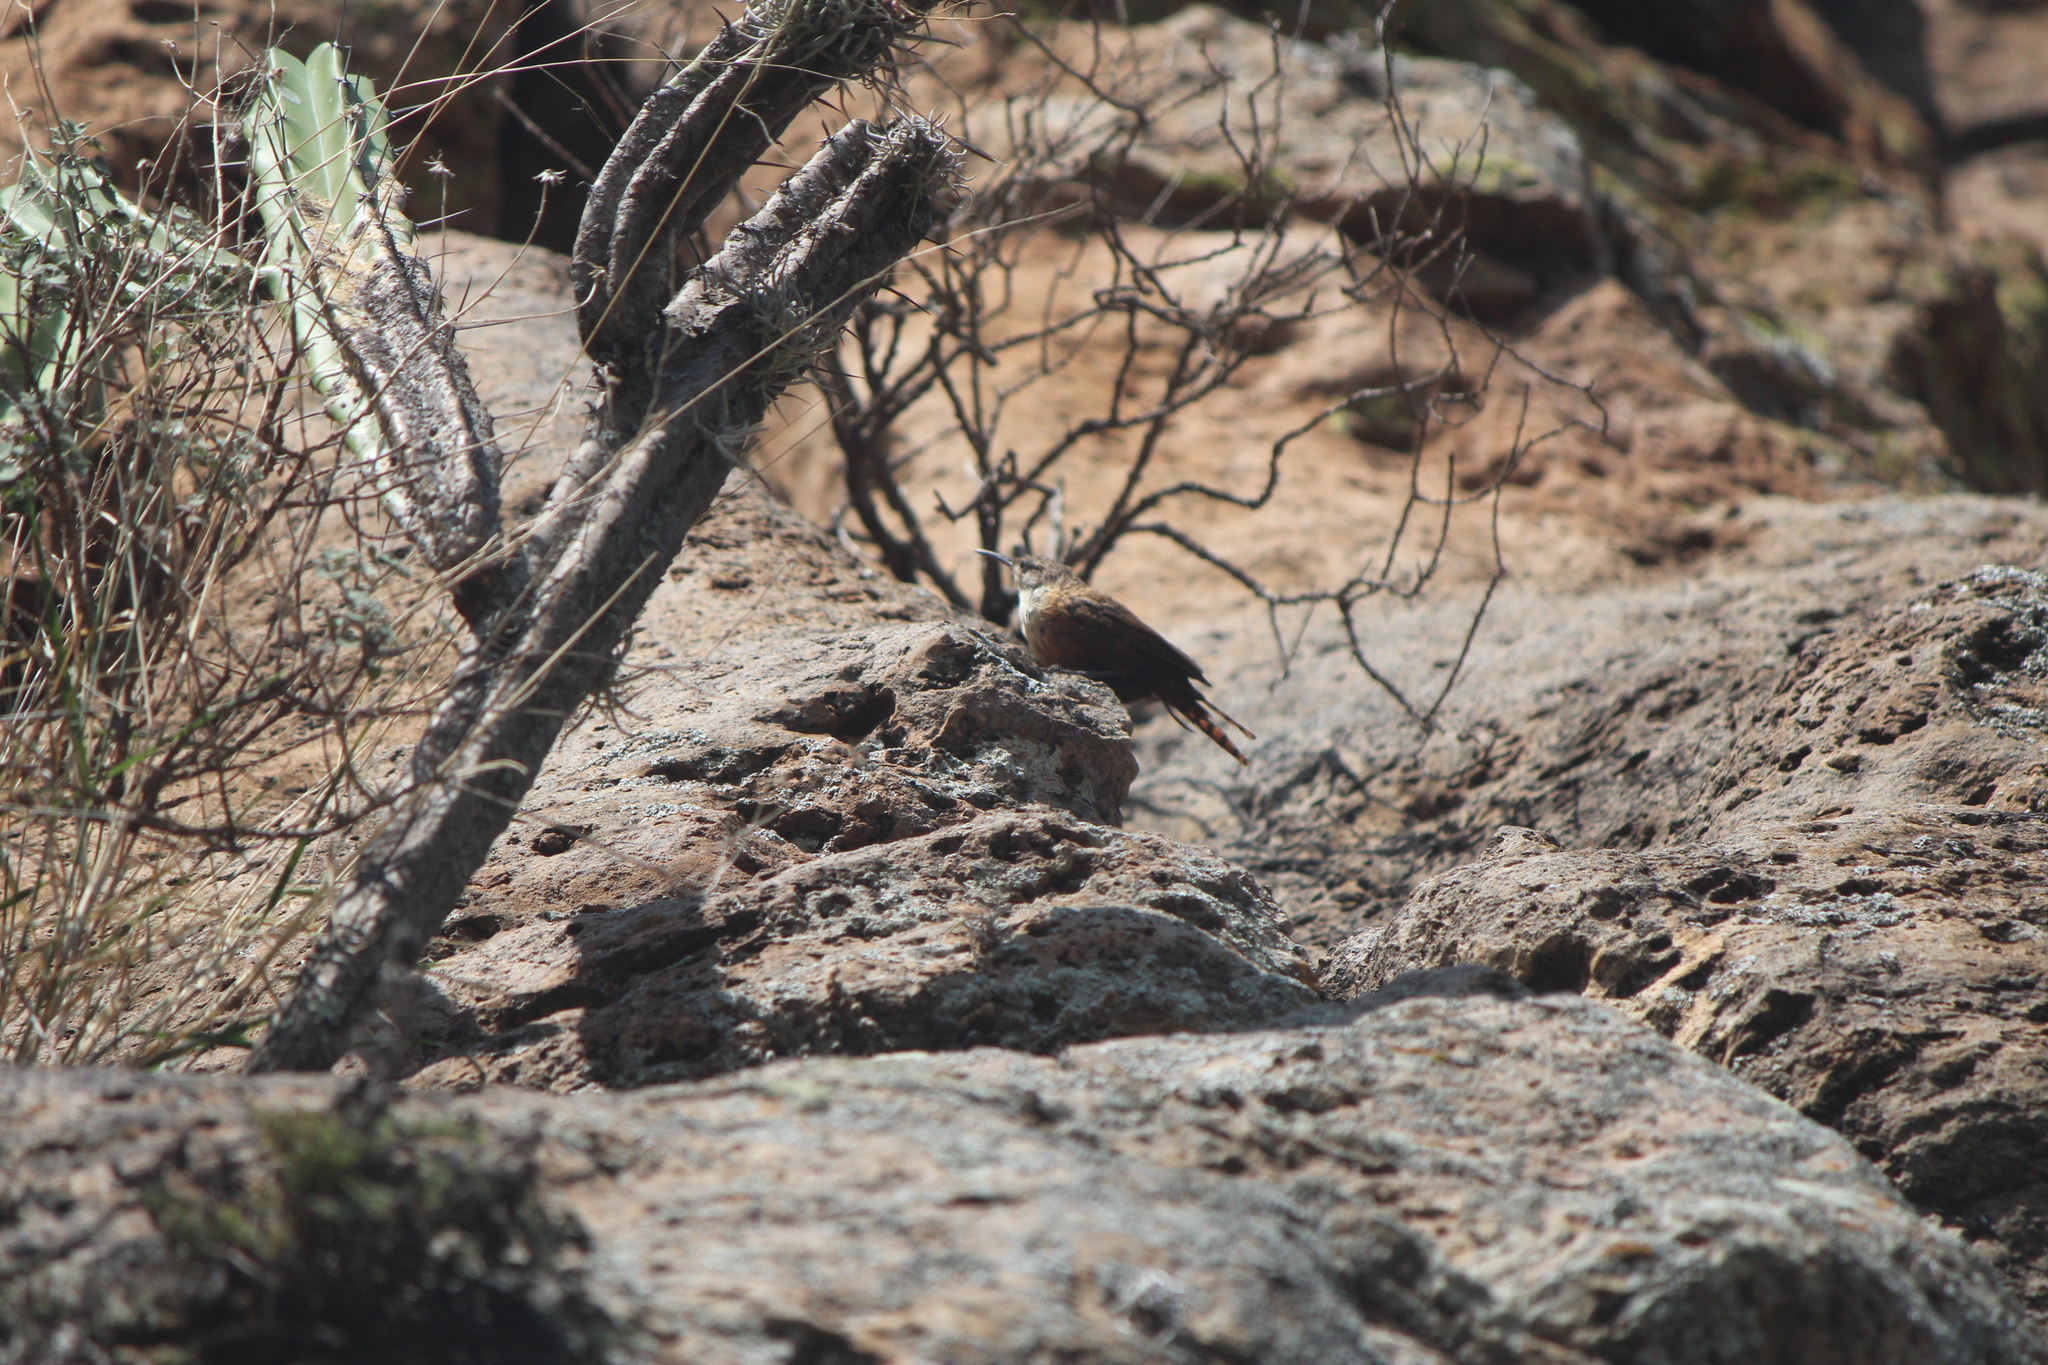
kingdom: Animalia
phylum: Chordata
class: Aves
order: Passeriformes
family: Troglodytidae
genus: Catherpes
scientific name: Catherpes mexicanus
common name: Canyon wren
